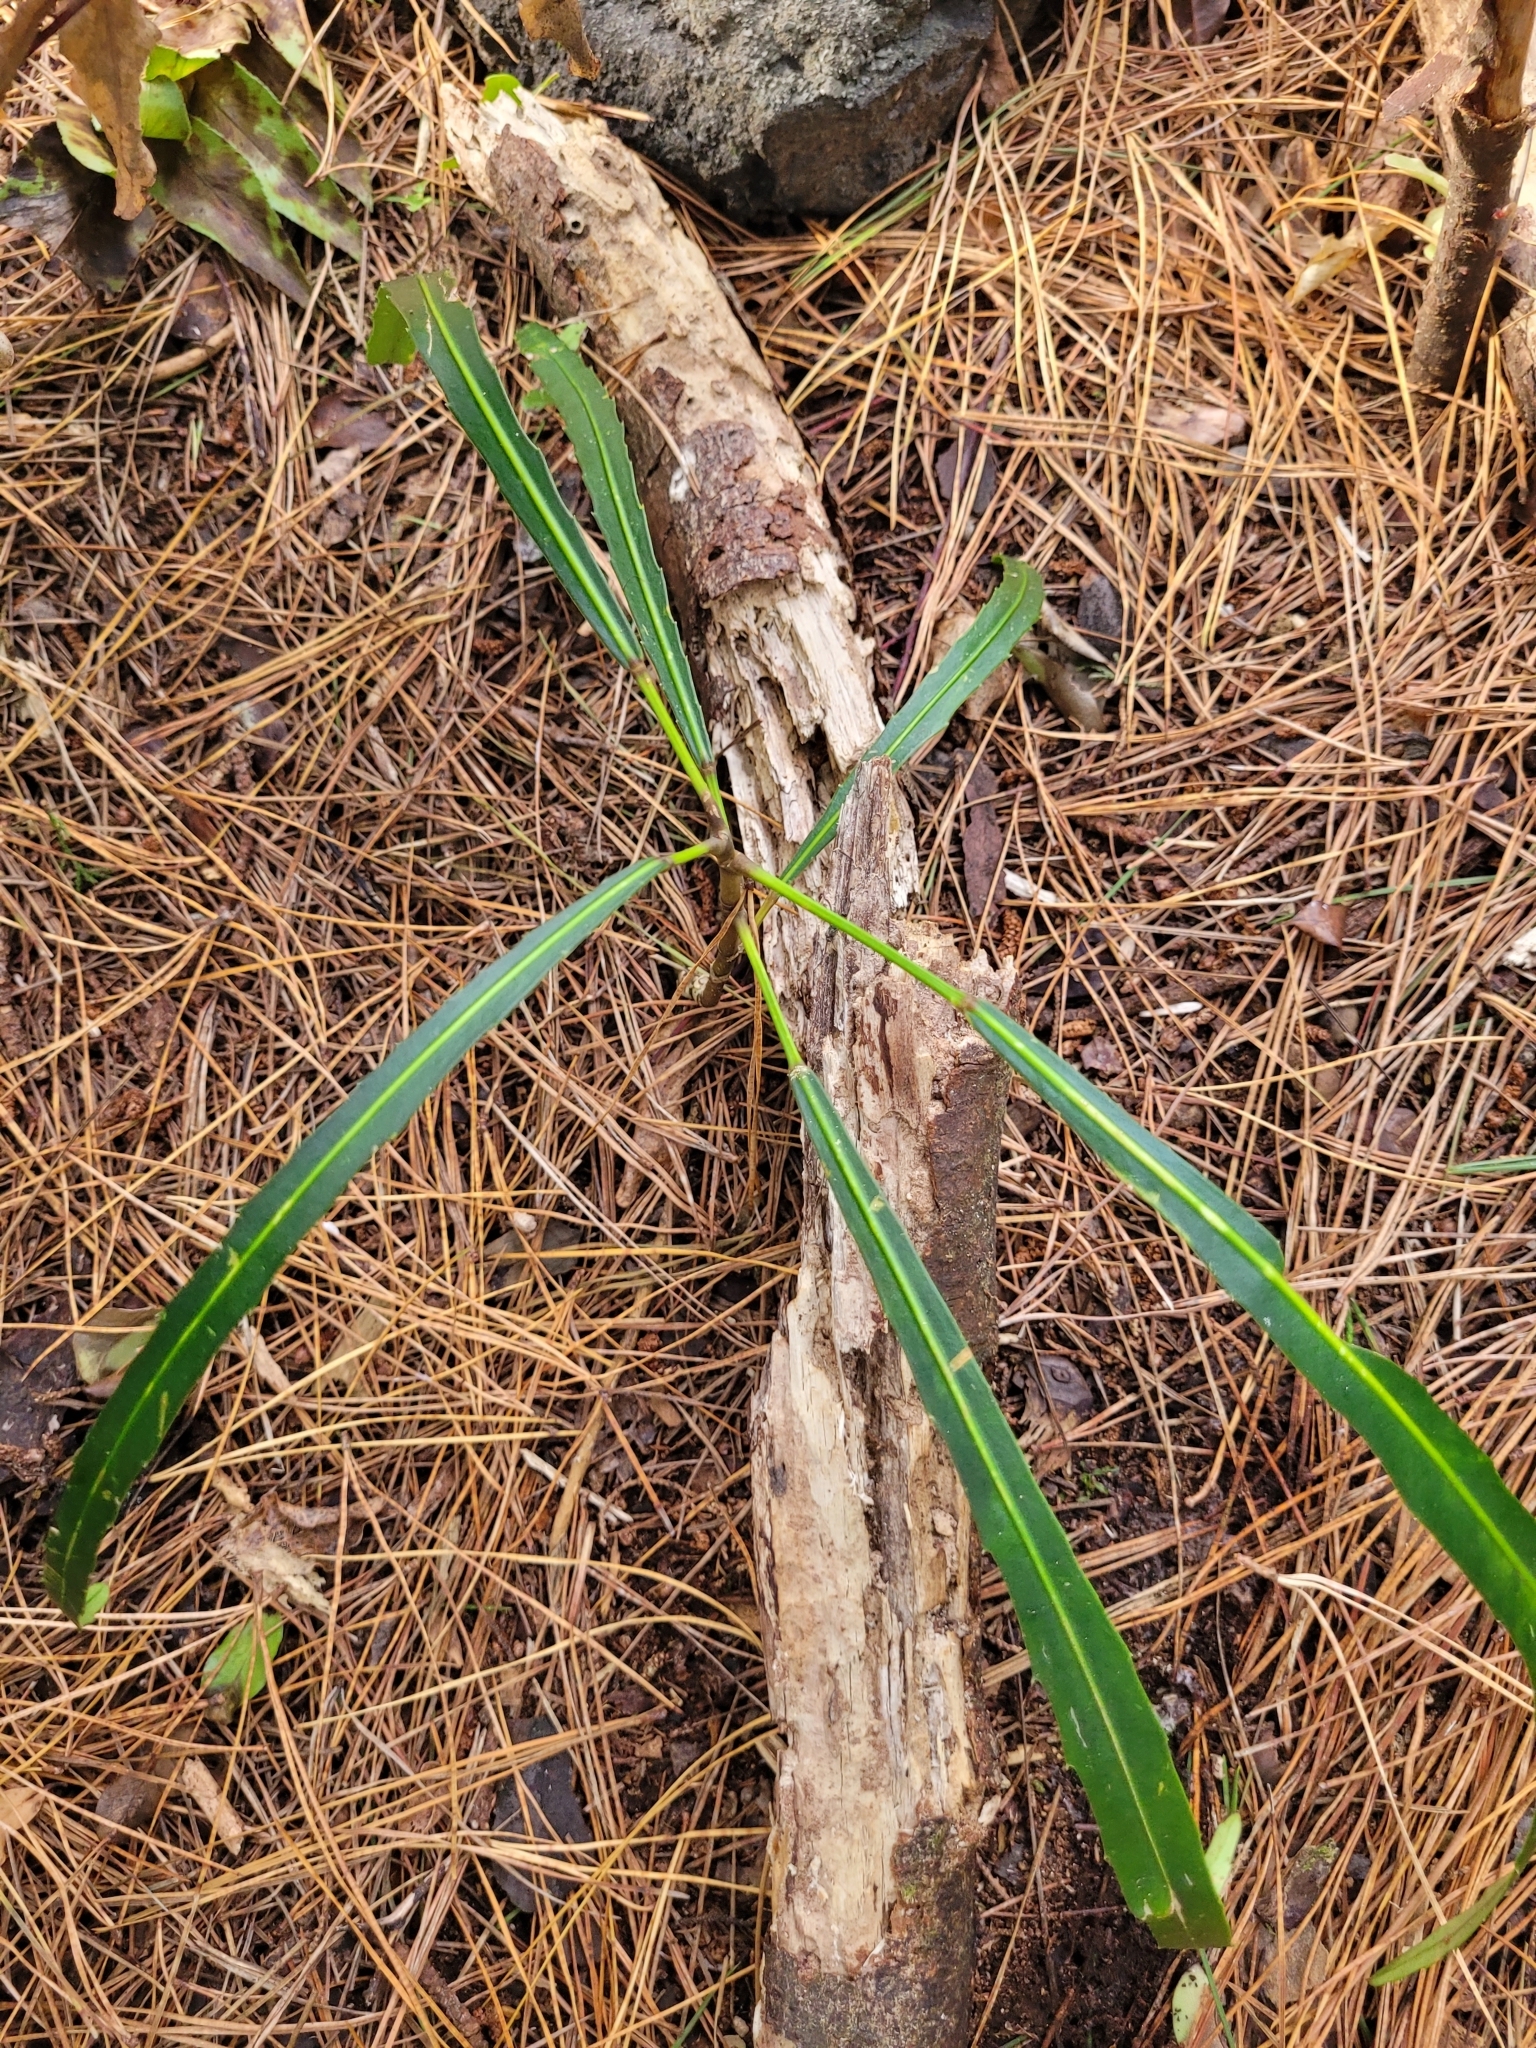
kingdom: Plantae
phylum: Tracheophyta
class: Magnoliopsida
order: Apiales
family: Araliaceae
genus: Pseudopanax
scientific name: Pseudopanax
